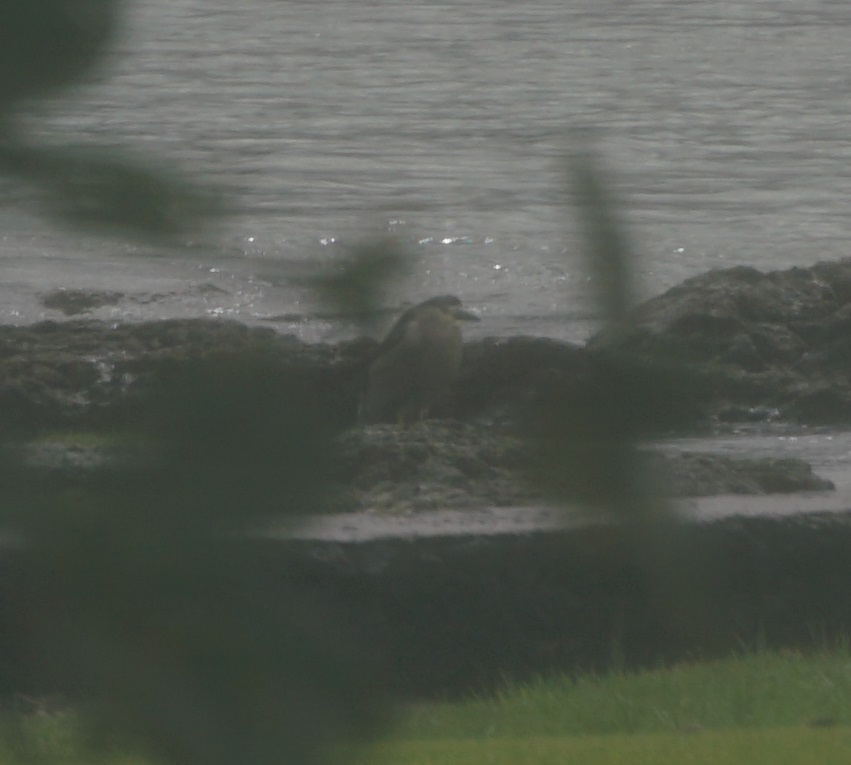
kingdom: Animalia
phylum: Chordata
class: Aves
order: Pelecaniformes
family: Ardeidae
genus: Nycticorax
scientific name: Nycticorax nycticorax
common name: Black-crowned night heron
